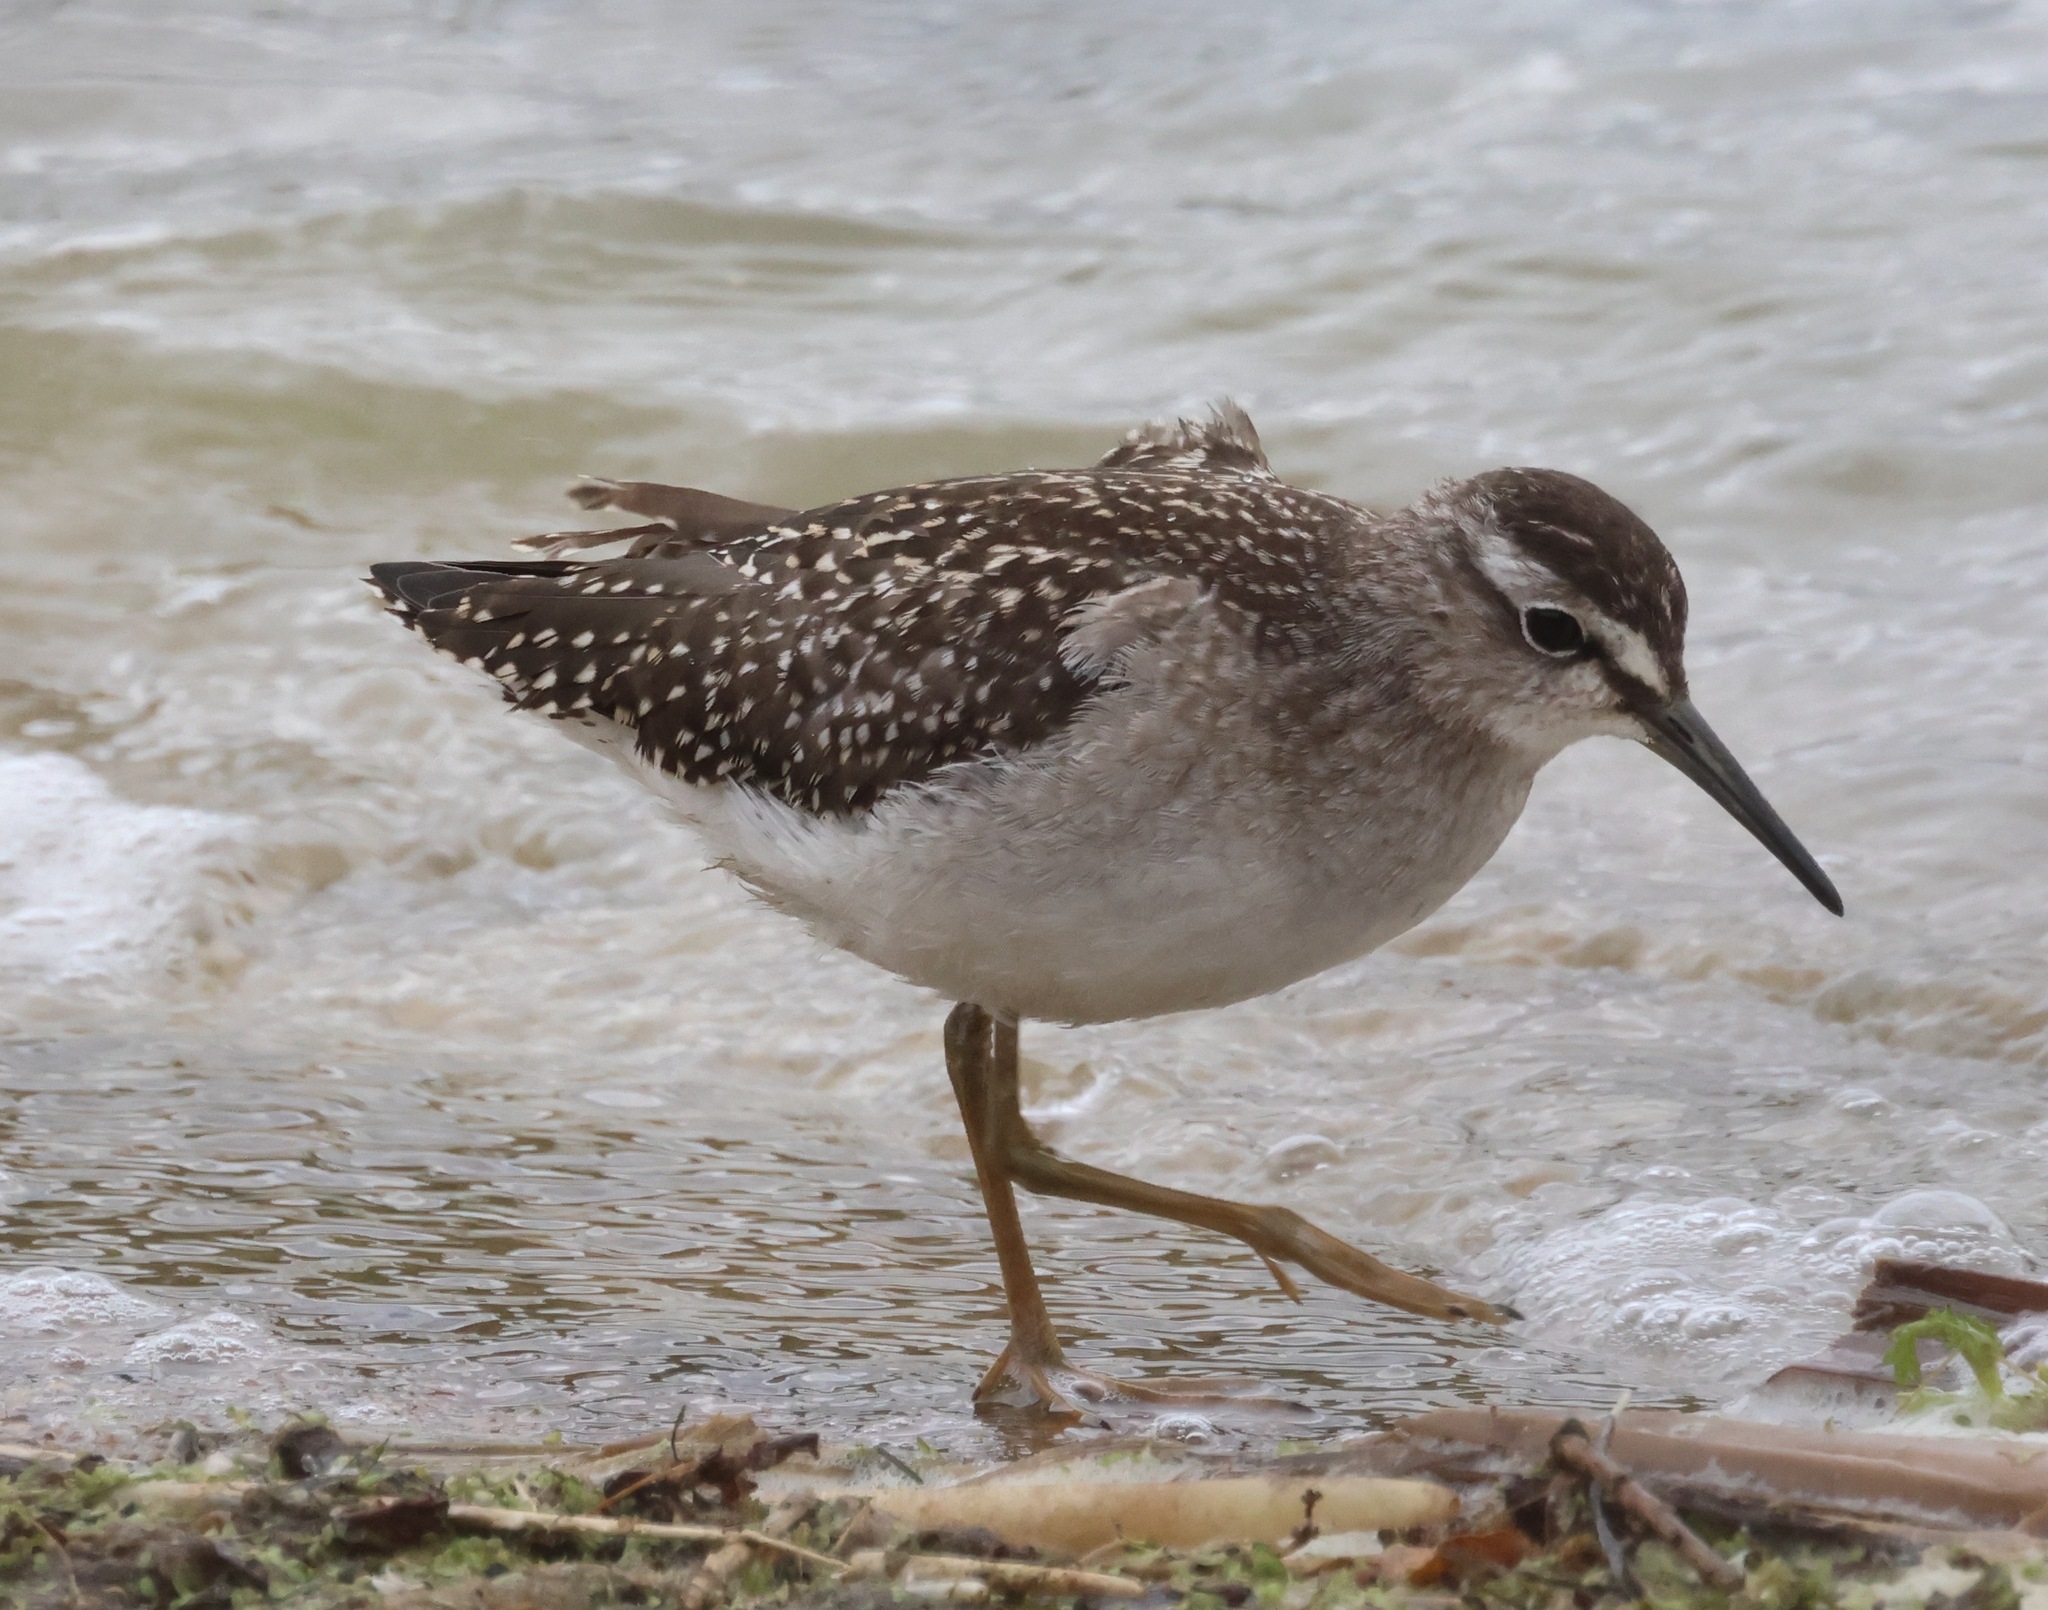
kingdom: Animalia
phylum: Chordata
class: Aves
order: Charadriiformes
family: Scolopacidae
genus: Tringa
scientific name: Tringa glareola
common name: Wood sandpiper
